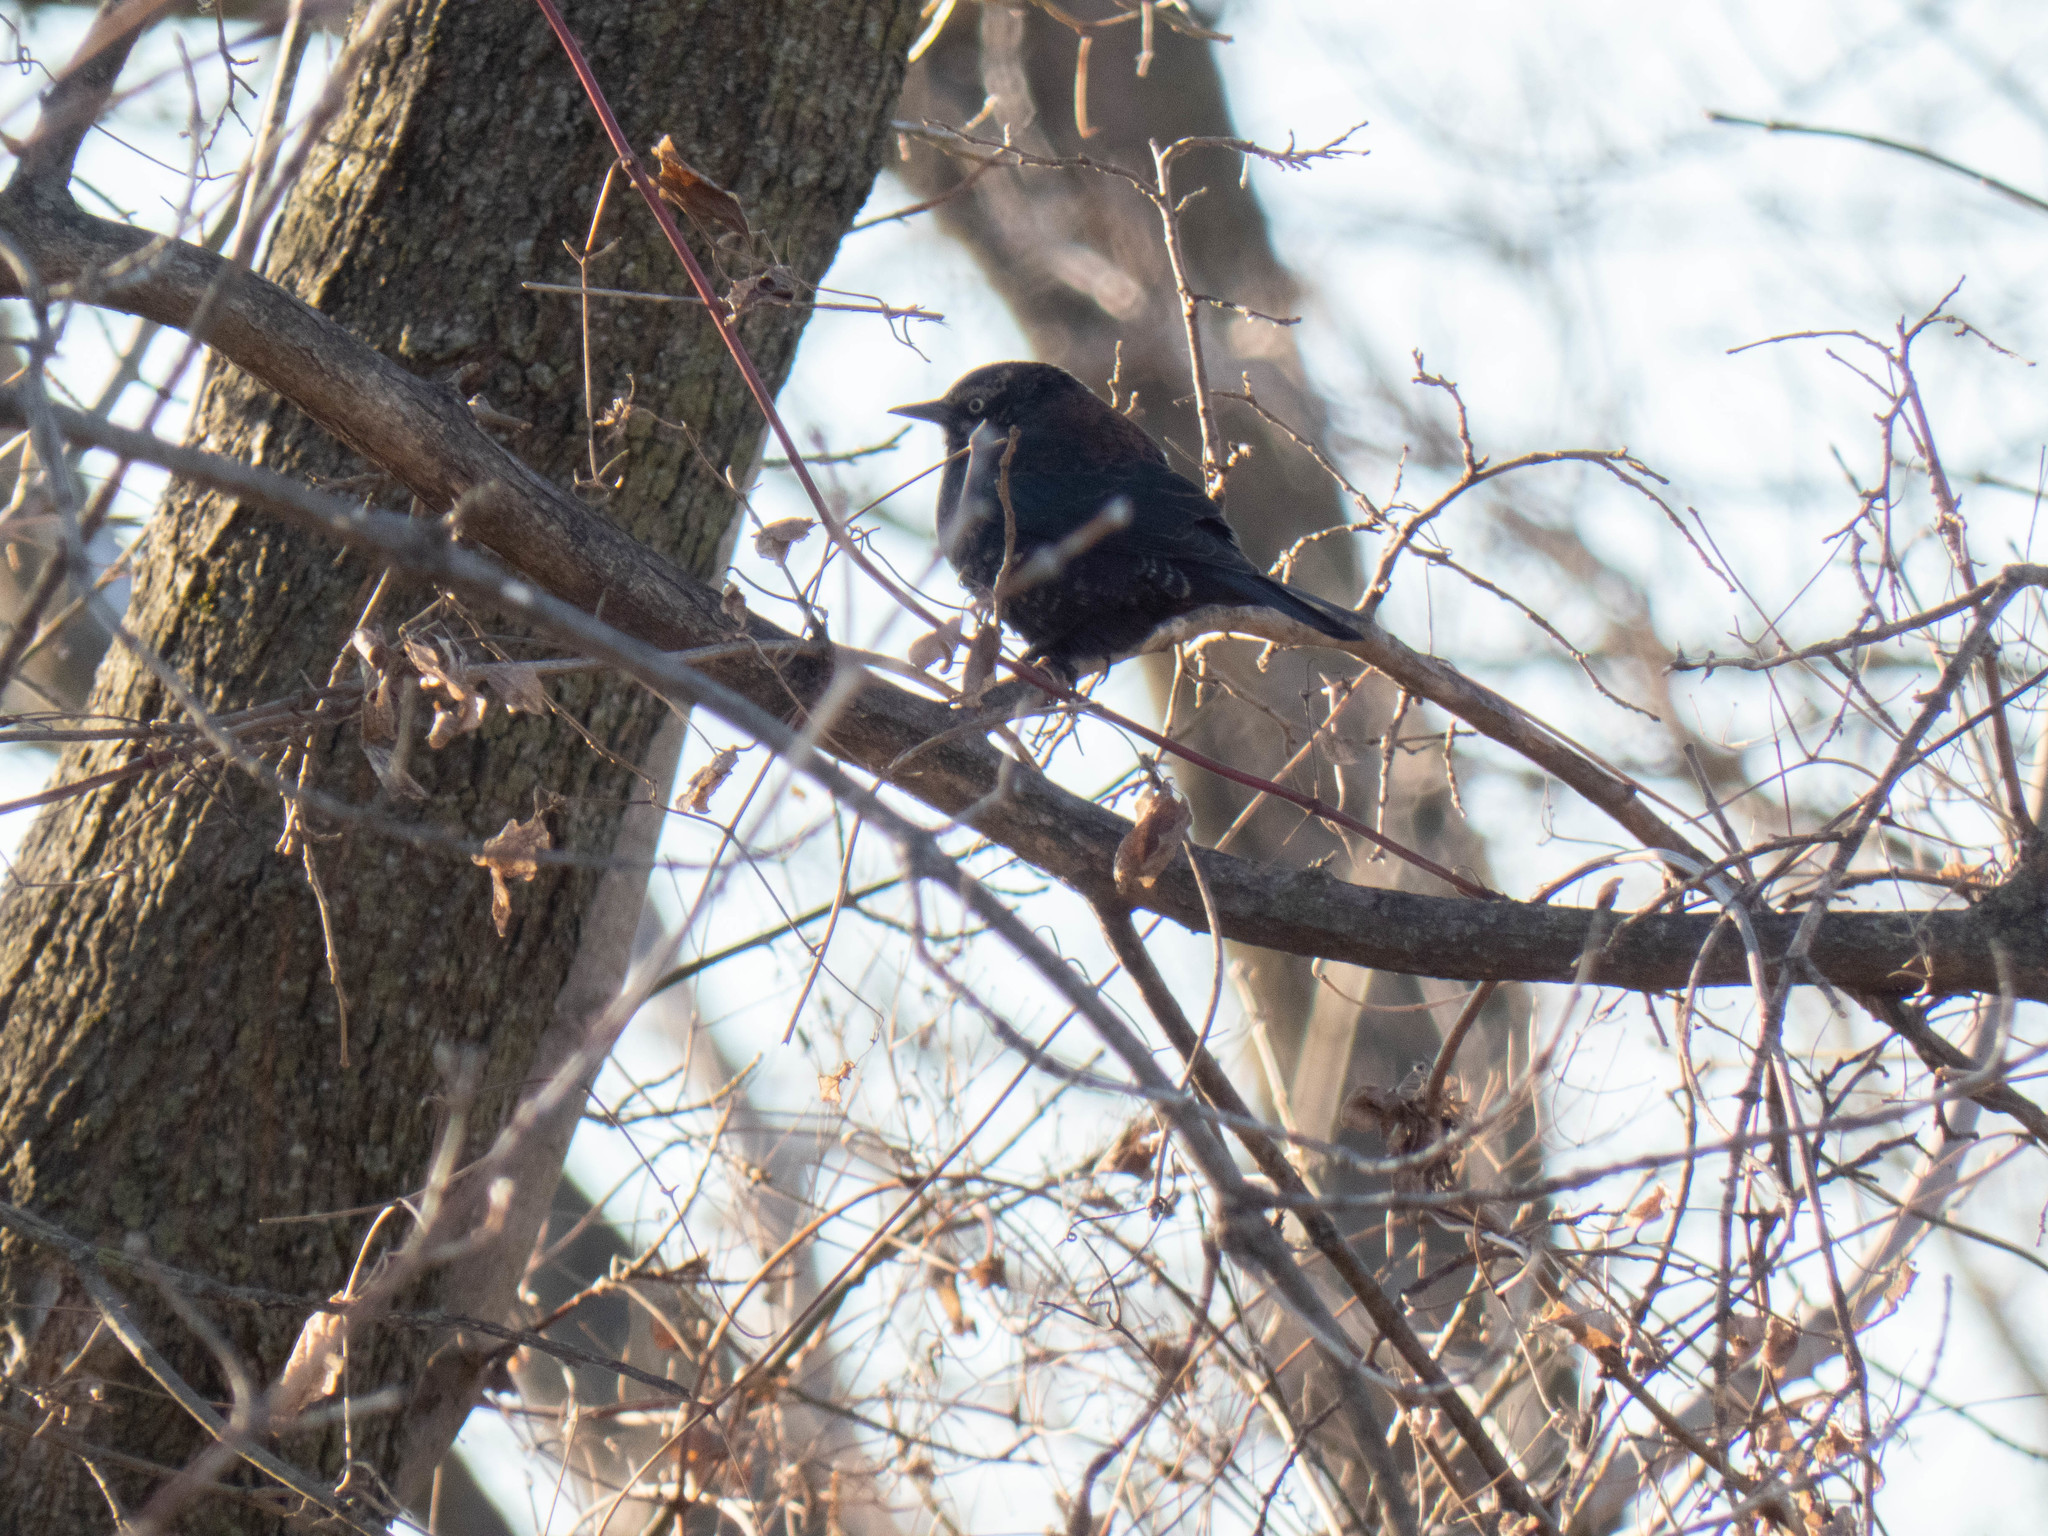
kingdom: Animalia
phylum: Chordata
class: Aves
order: Passeriformes
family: Icteridae
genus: Euphagus
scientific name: Euphagus carolinus
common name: Rusty blackbird
